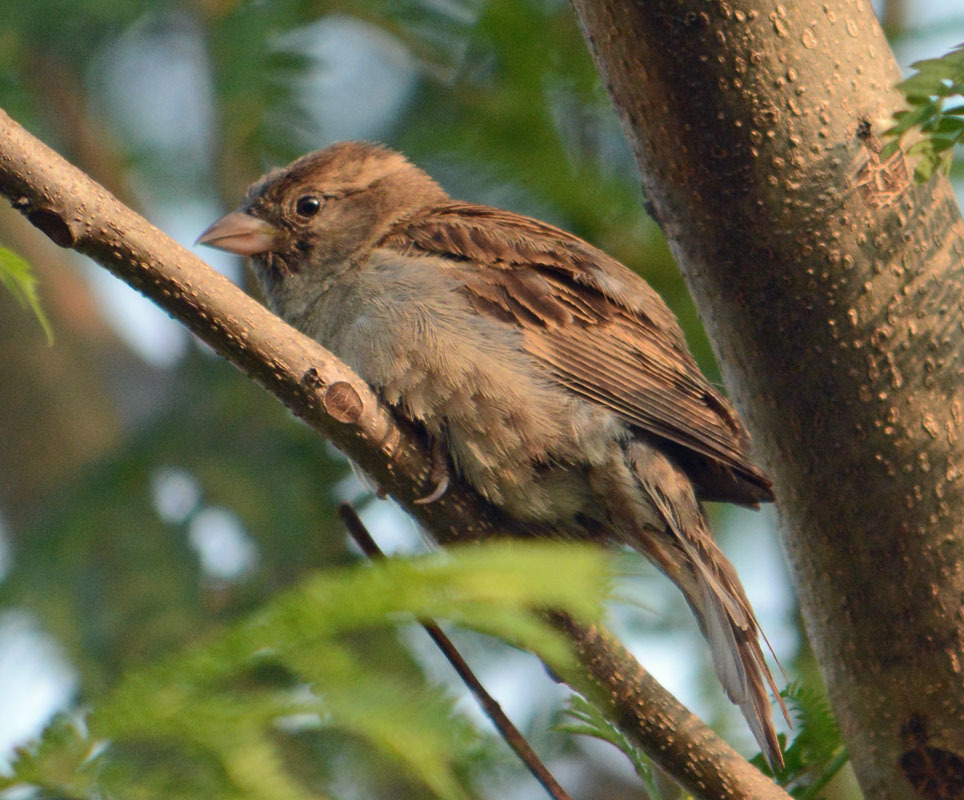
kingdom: Animalia
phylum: Chordata
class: Aves
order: Passeriformes
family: Passeridae
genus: Passer
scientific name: Passer domesticus
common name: House sparrow
